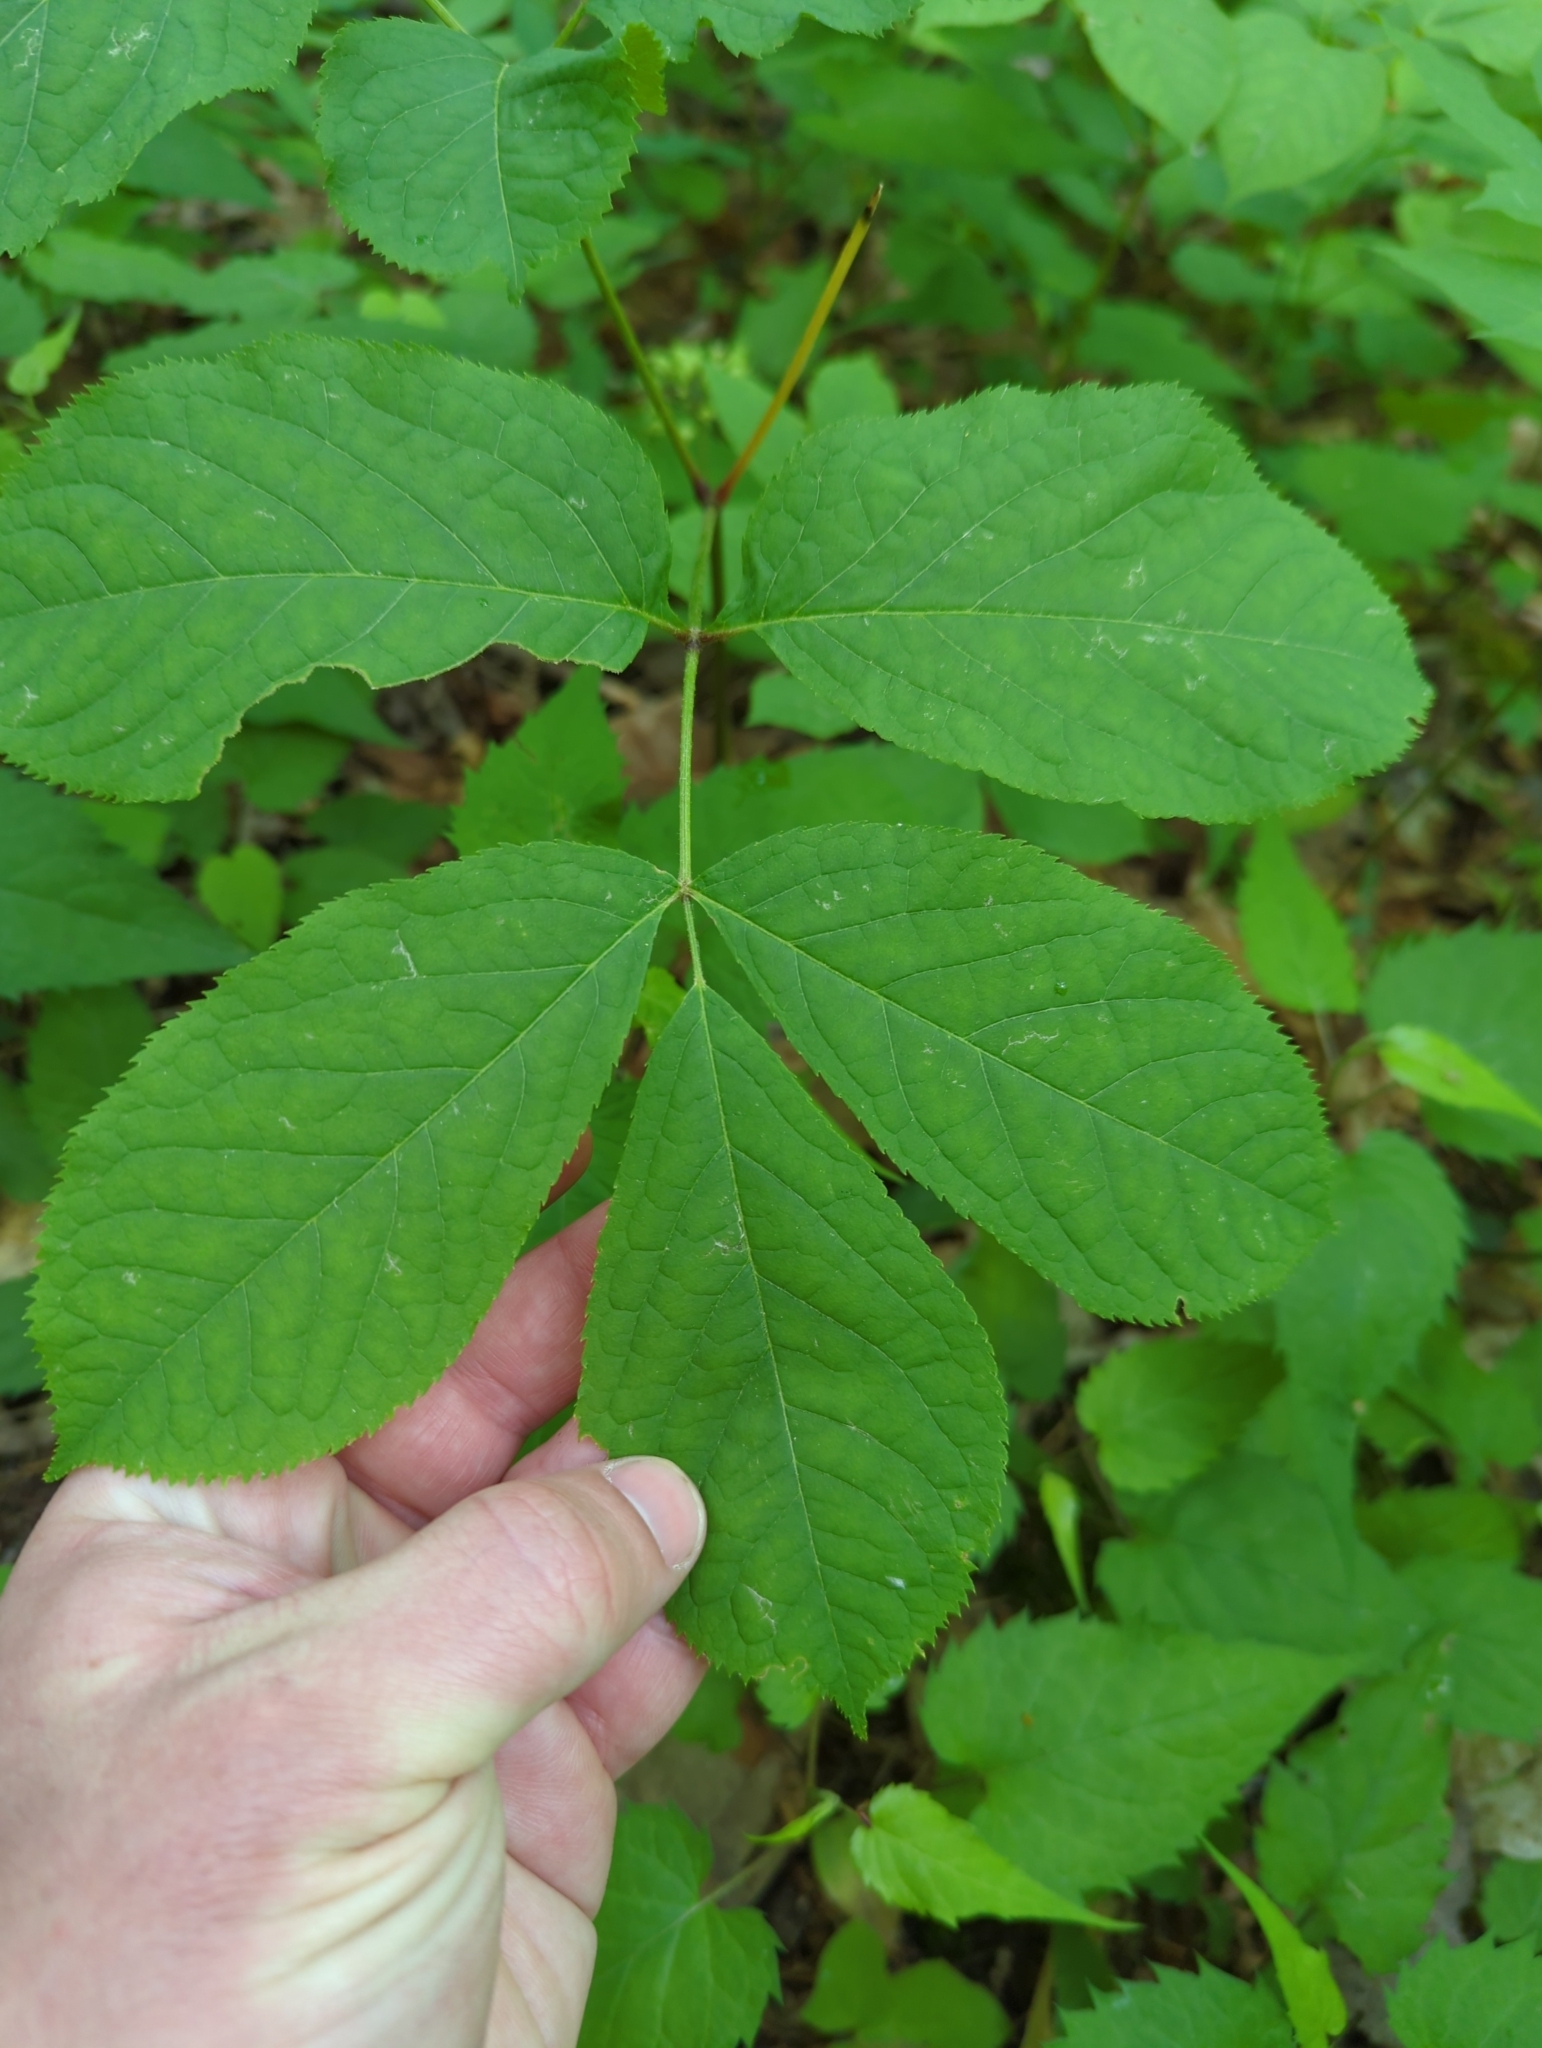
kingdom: Plantae
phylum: Tracheophyta
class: Magnoliopsida
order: Apiales
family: Araliaceae
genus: Aralia
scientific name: Aralia nudicaulis
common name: Wild sarsaparilla
